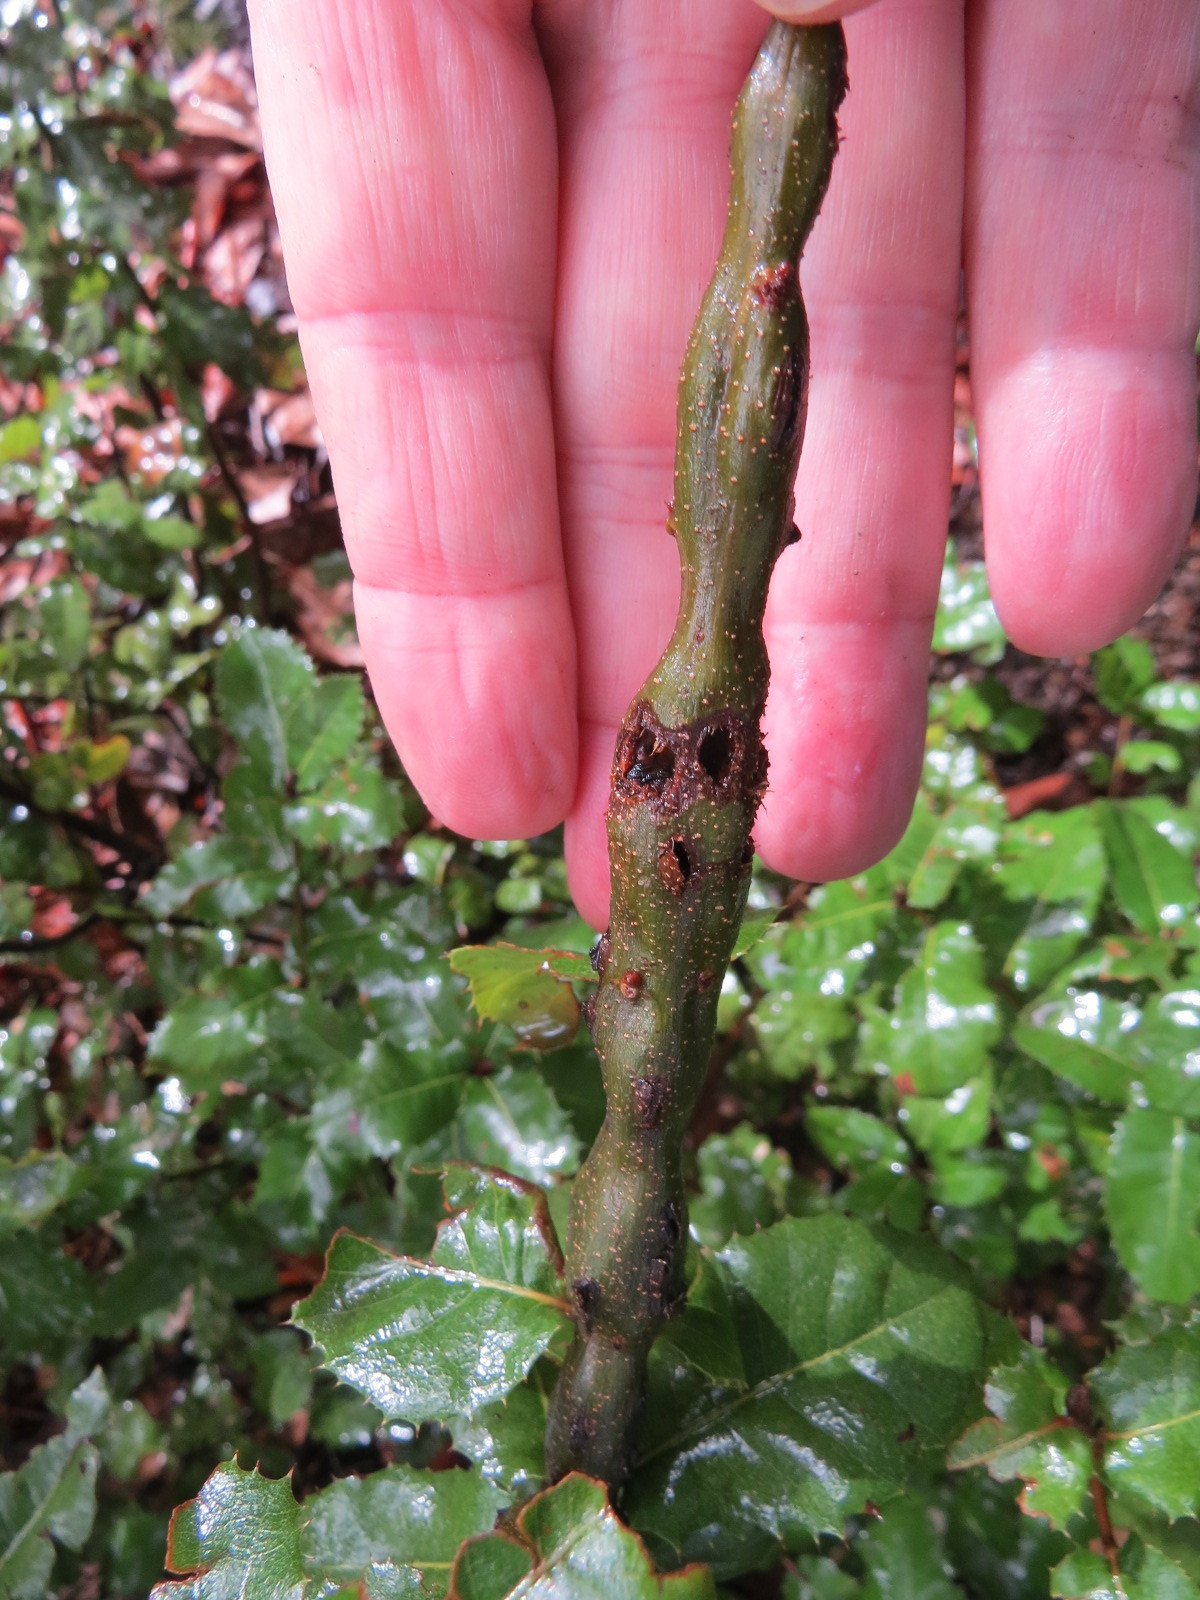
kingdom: Animalia
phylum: Arthropoda
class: Insecta
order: Hymenoptera
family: Cynipidae
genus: Callirhytis
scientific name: Callirhytis
